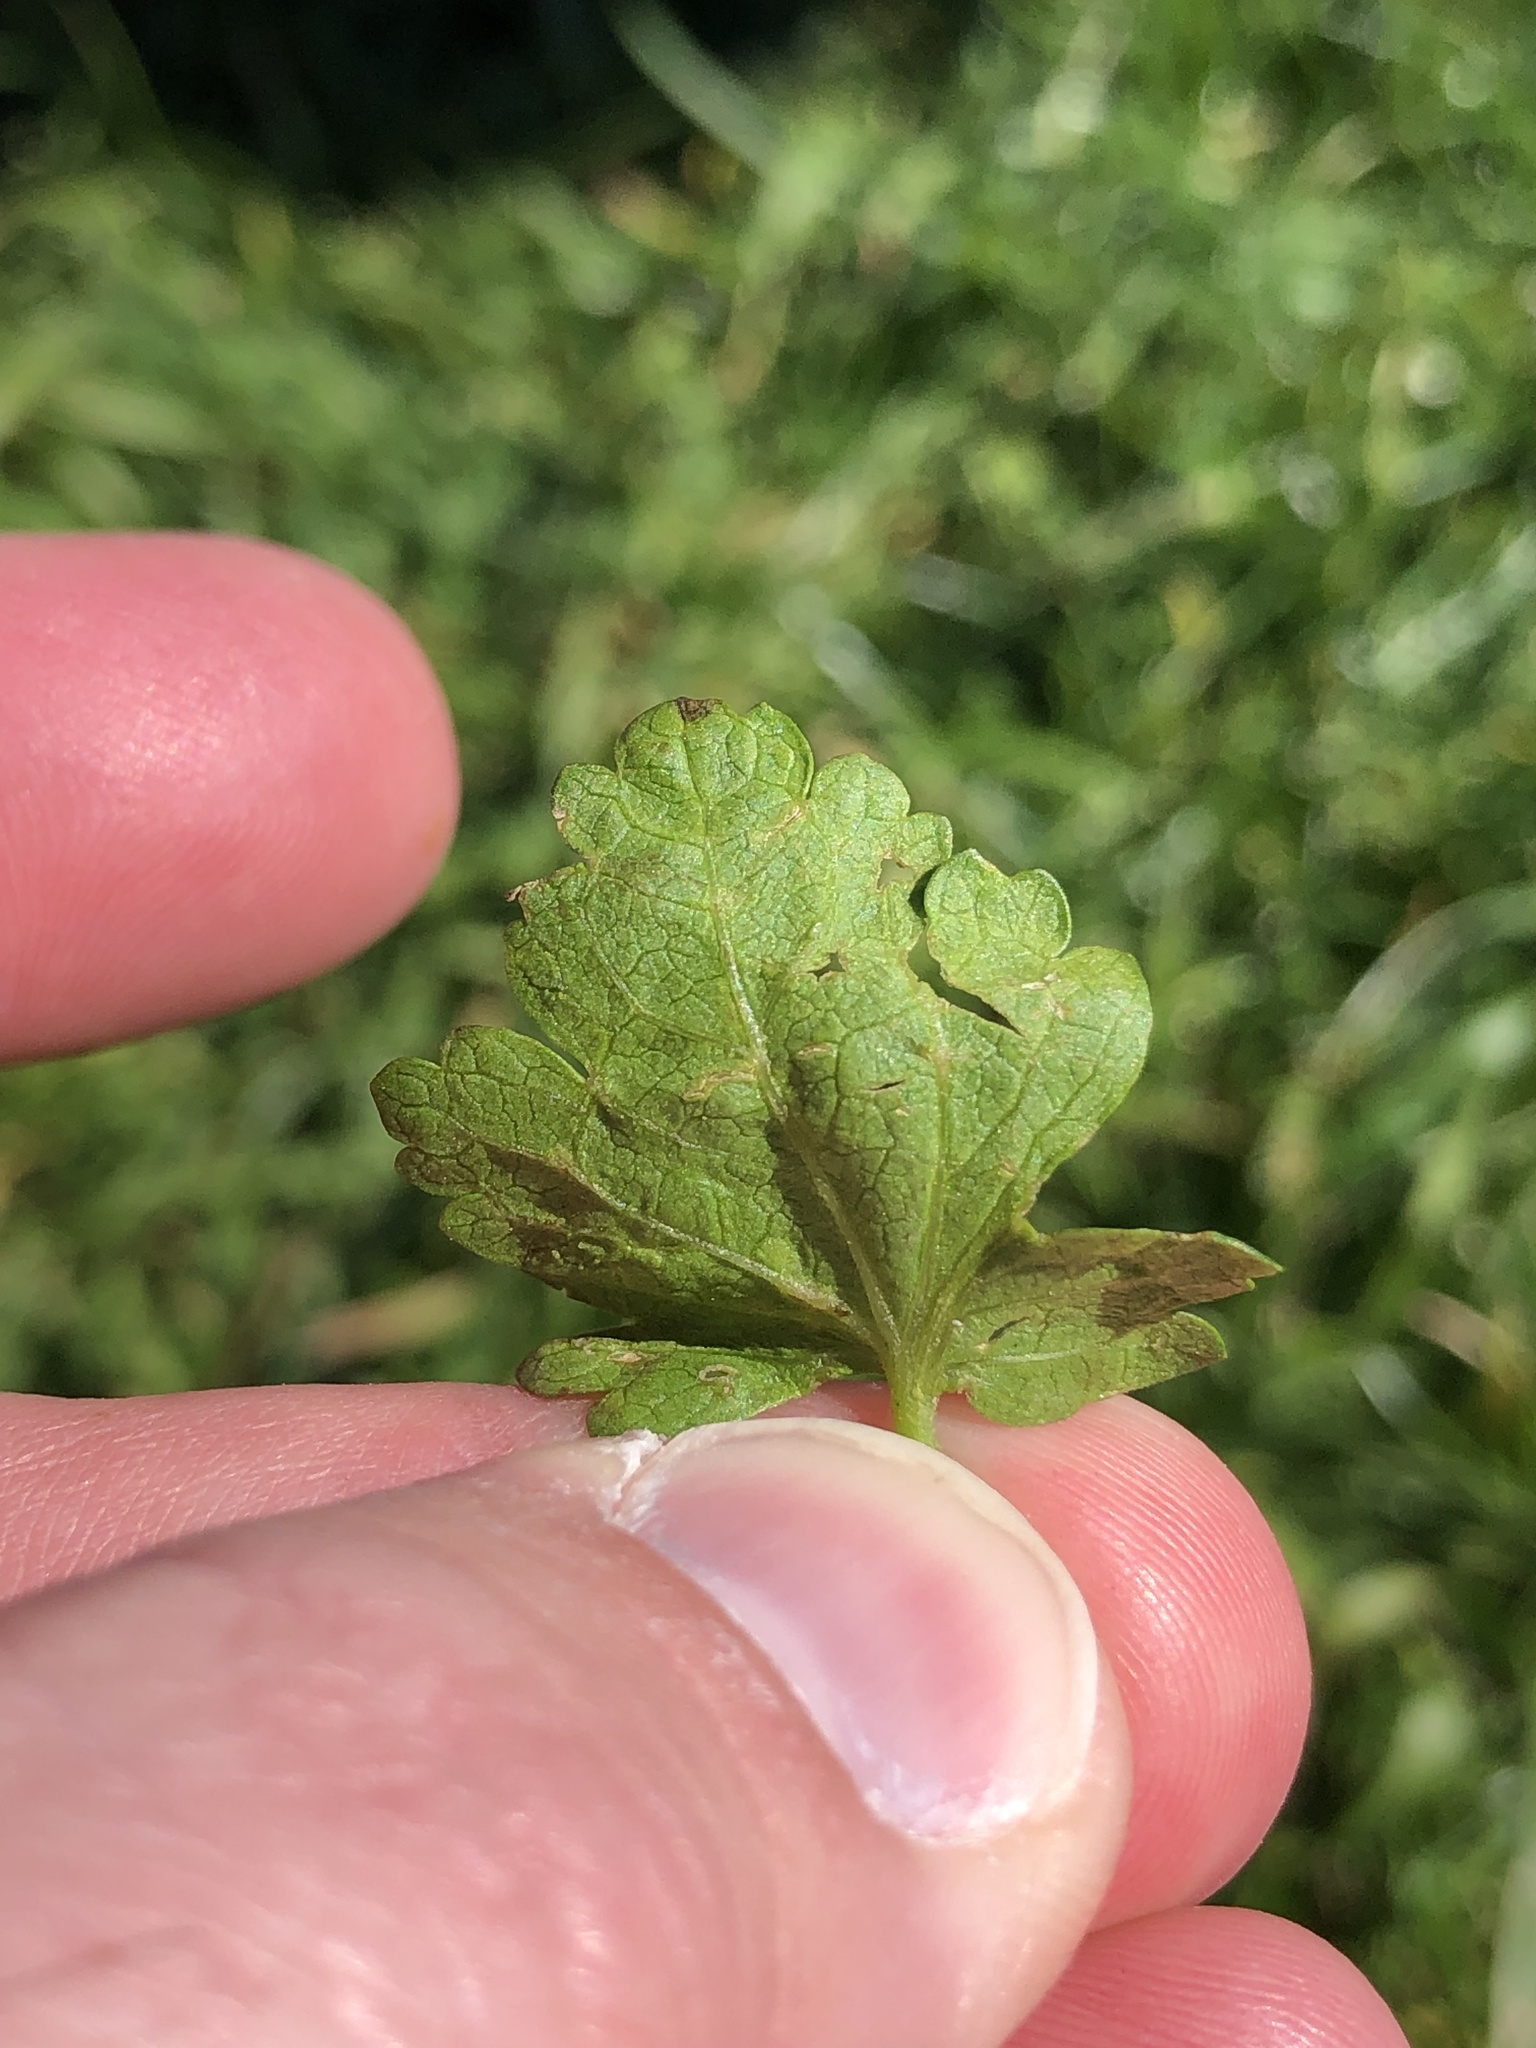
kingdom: Plantae
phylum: Tracheophyta
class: Magnoliopsida
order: Malvales
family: Malvaceae
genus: Modiola
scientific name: Modiola caroliniana
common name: Carolina bristlemallow
